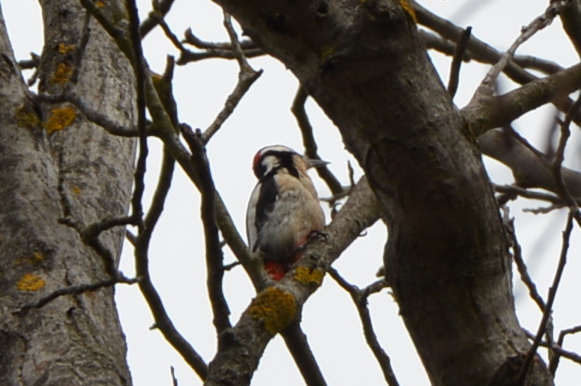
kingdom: Animalia
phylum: Chordata
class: Aves
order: Piciformes
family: Picidae
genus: Dendrocopos
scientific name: Dendrocopos major
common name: Great spotted woodpecker
